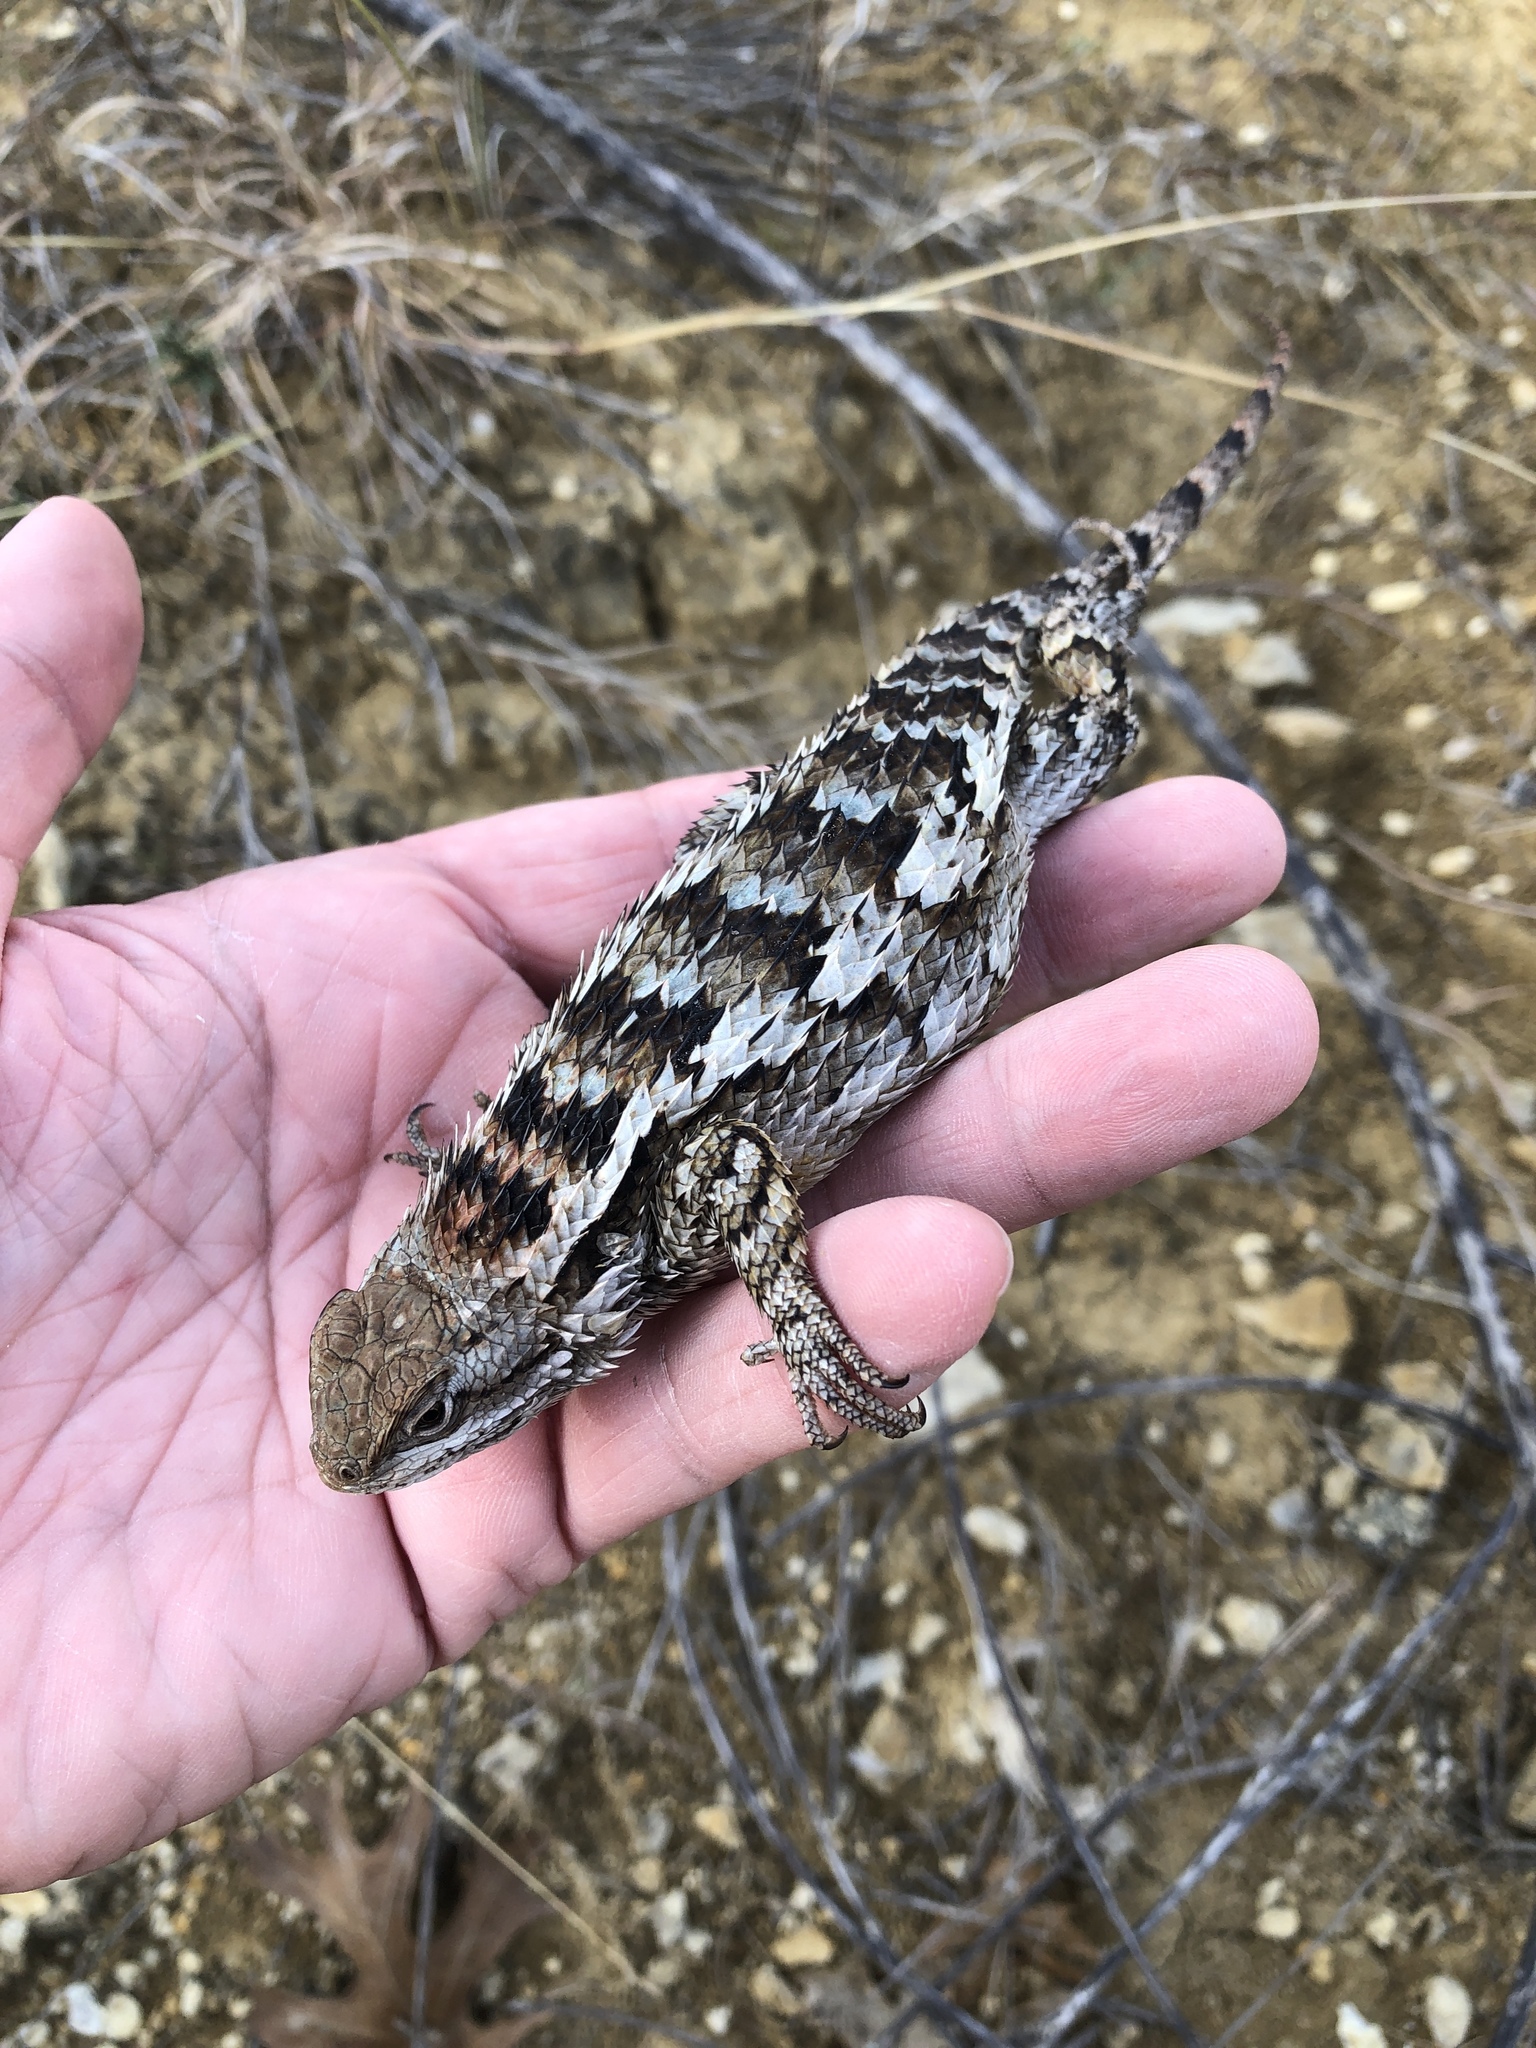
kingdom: Animalia
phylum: Chordata
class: Squamata
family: Phrynosomatidae
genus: Sceloporus
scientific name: Sceloporus olivaceus
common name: Texas spiny lizard
